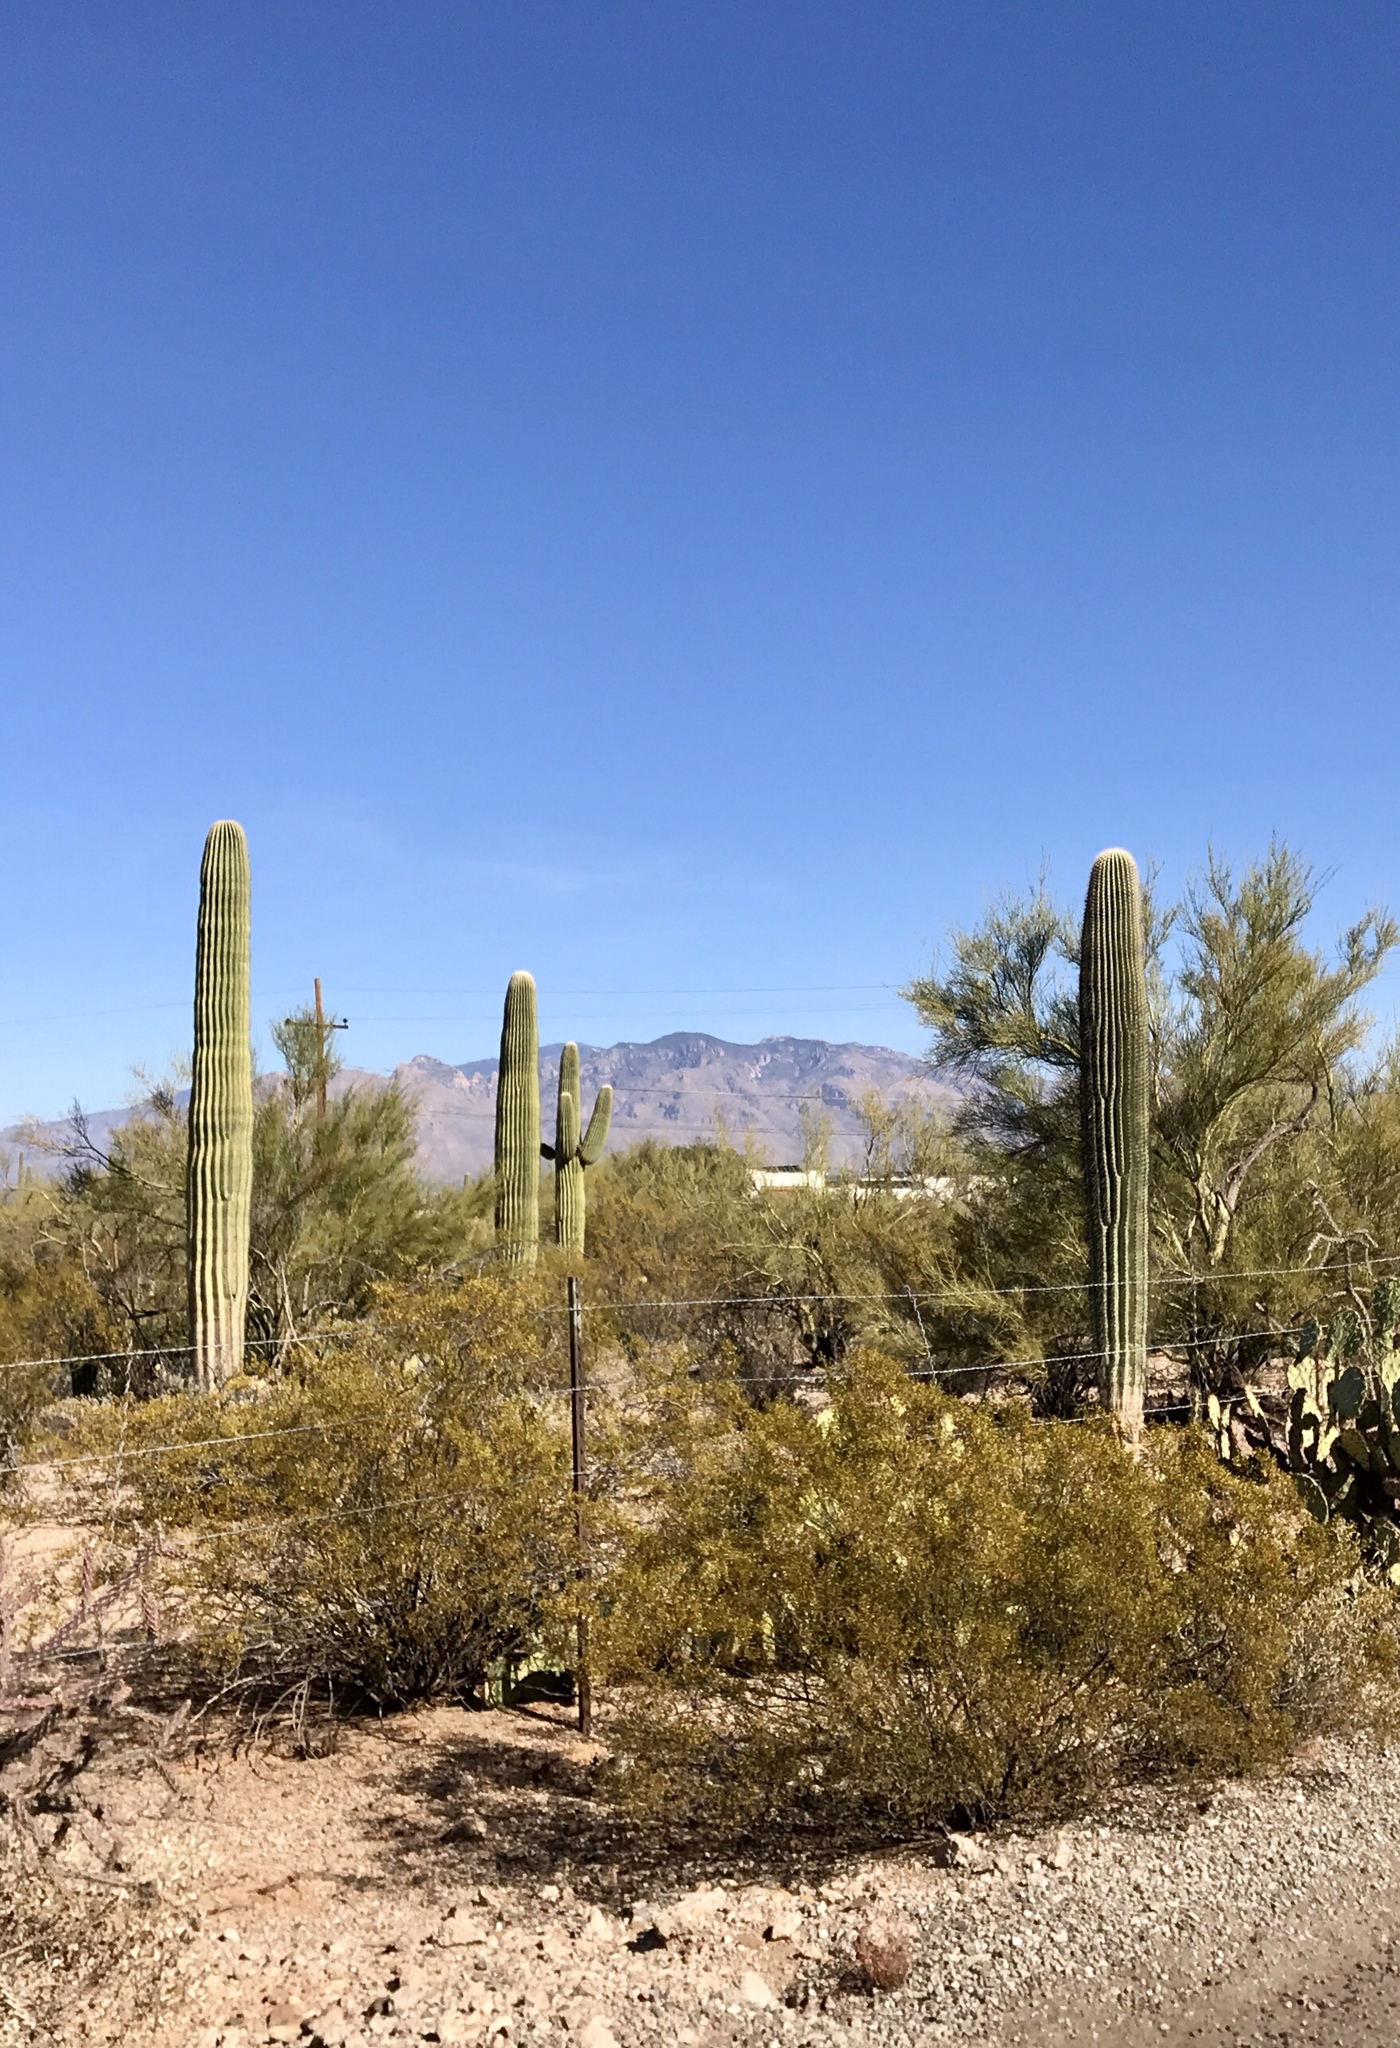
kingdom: Plantae
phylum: Tracheophyta
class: Magnoliopsida
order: Caryophyllales
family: Cactaceae
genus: Carnegiea
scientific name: Carnegiea gigantea
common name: Saguaro
